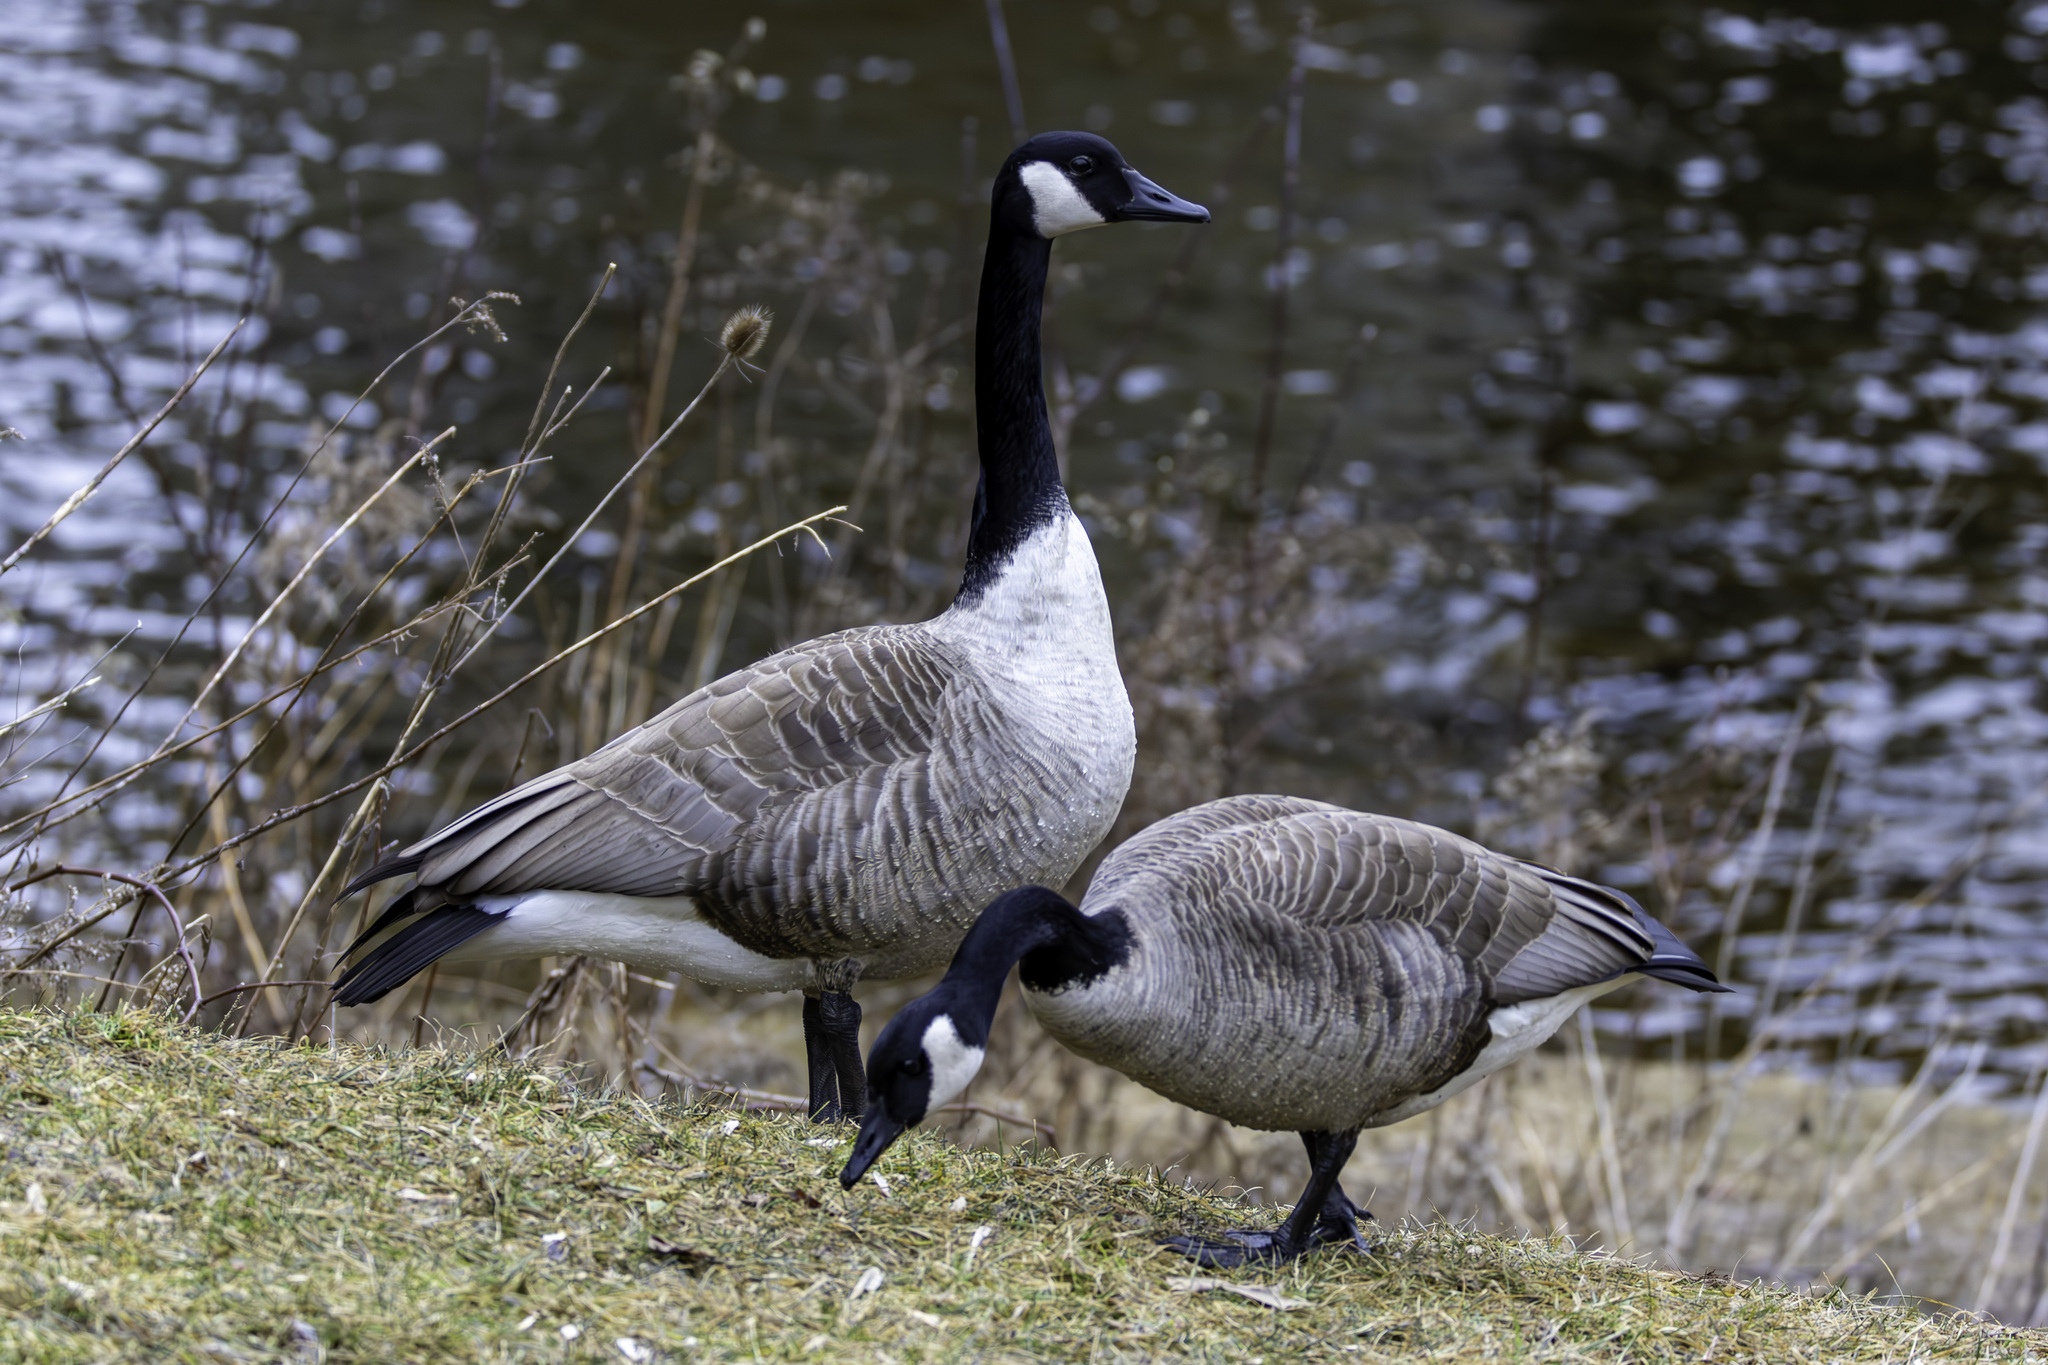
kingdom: Animalia
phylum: Chordata
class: Aves
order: Anseriformes
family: Anatidae
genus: Branta
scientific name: Branta canadensis
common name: Canada goose
